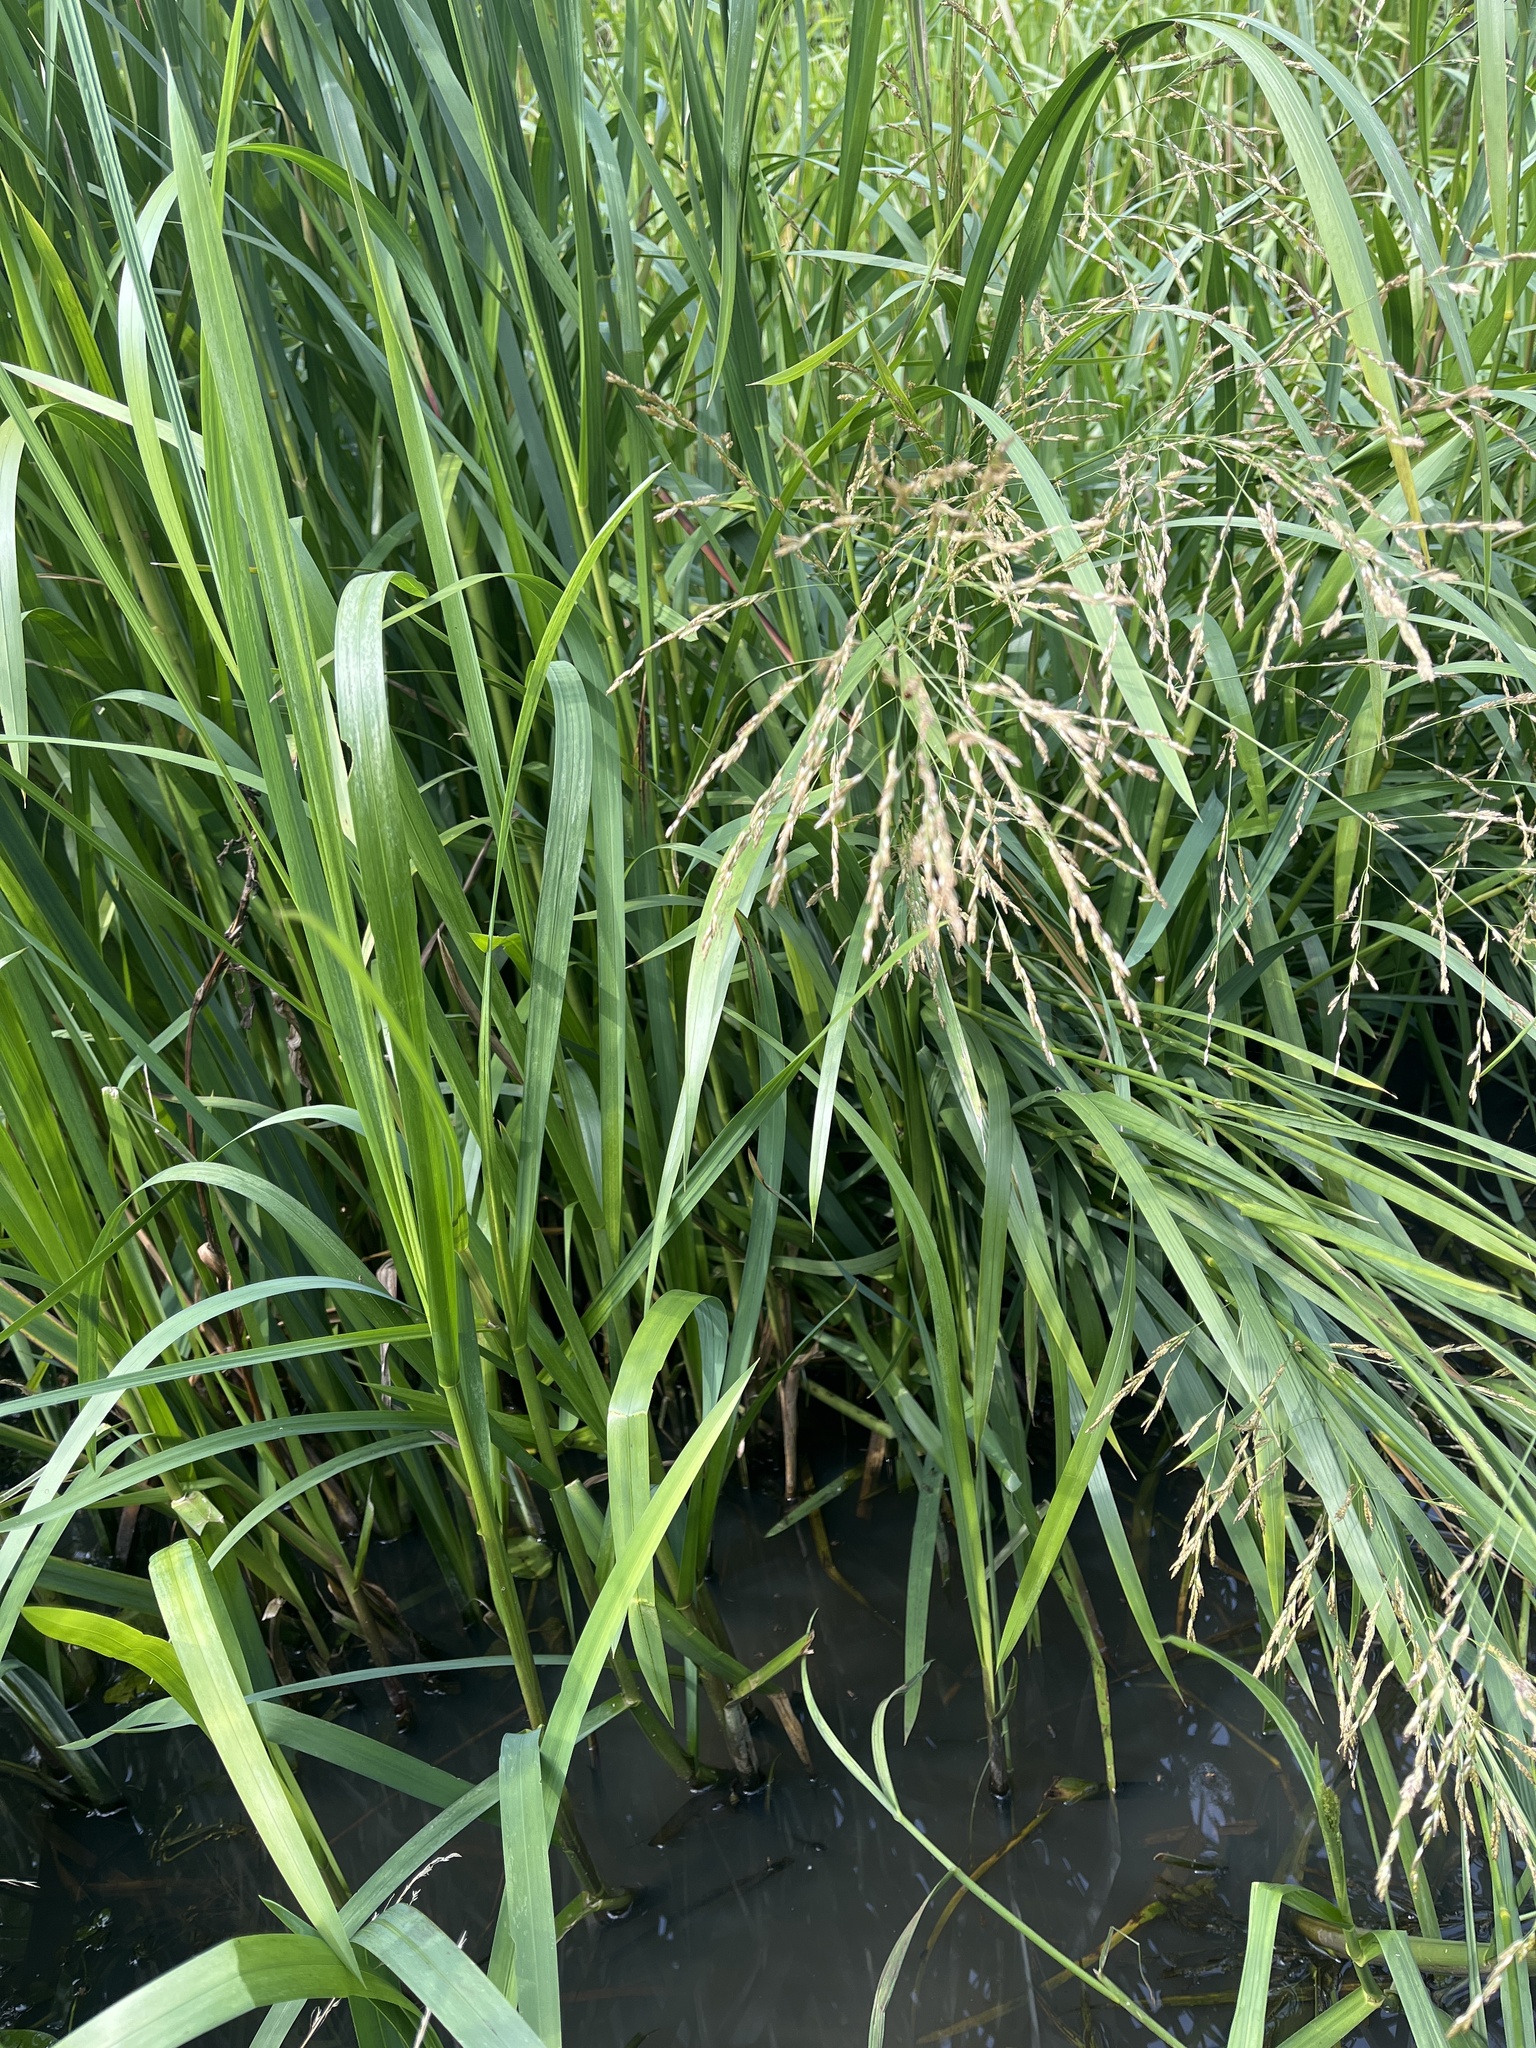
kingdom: Plantae
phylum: Tracheophyta
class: Liliopsida
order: Poales
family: Poaceae
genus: Glyceria
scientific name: Glyceria maxima
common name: Reed mannagrass
